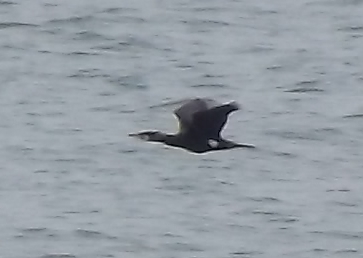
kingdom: Animalia
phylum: Chordata
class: Aves
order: Suliformes
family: Phalacrocoracidae
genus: Phalacrocorax
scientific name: Phalacrocorax carbo
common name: Great cormorant
